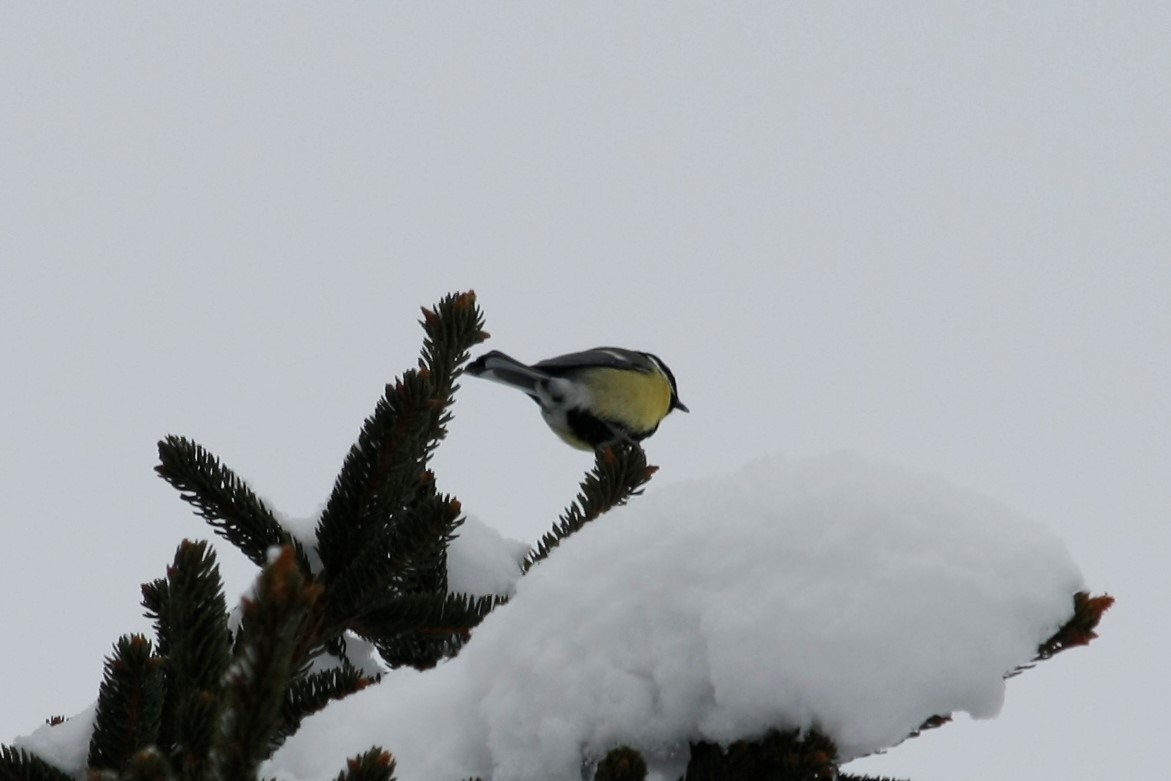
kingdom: Animalia
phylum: Chordata
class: Aves
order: Passeriformes
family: Paridae
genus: Parus
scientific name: Parus major
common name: Great tit
